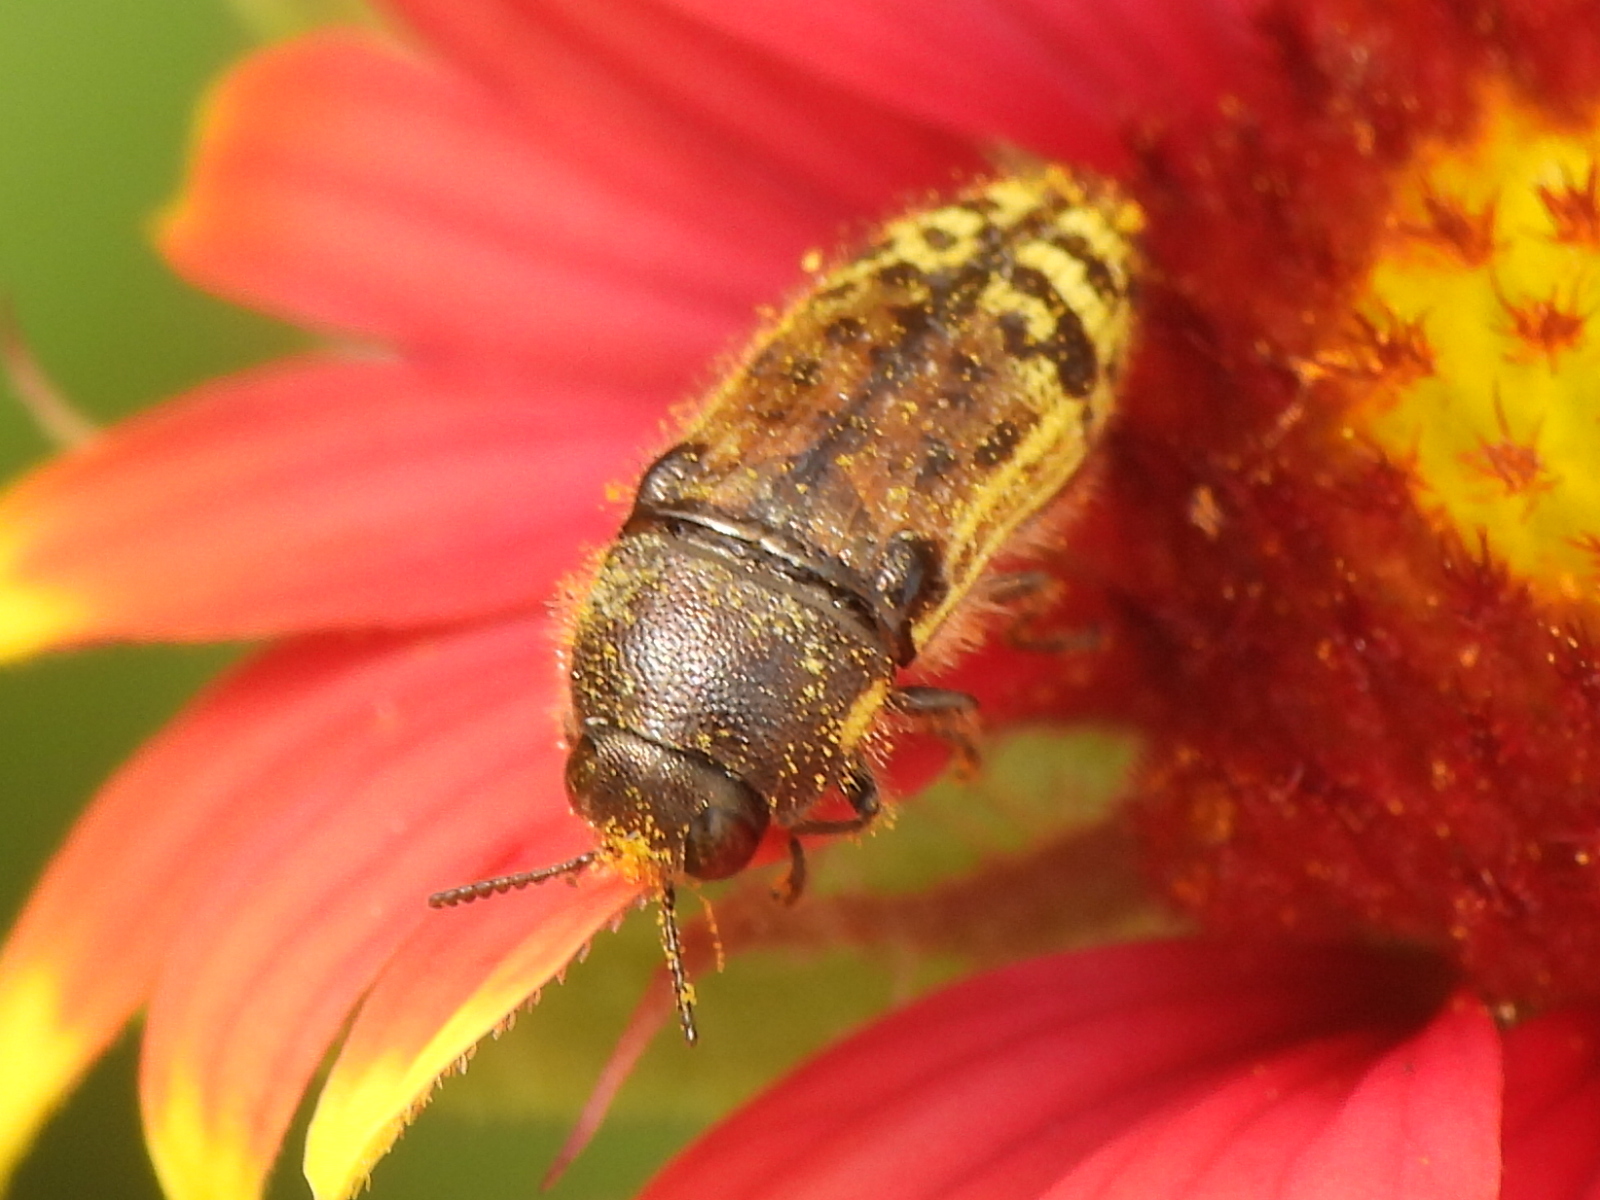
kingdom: Animalia
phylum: Arthropoda
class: Insecta
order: Coleoptera
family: Buprestidae
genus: Acmaeodera
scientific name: Acmaeodera mixta
